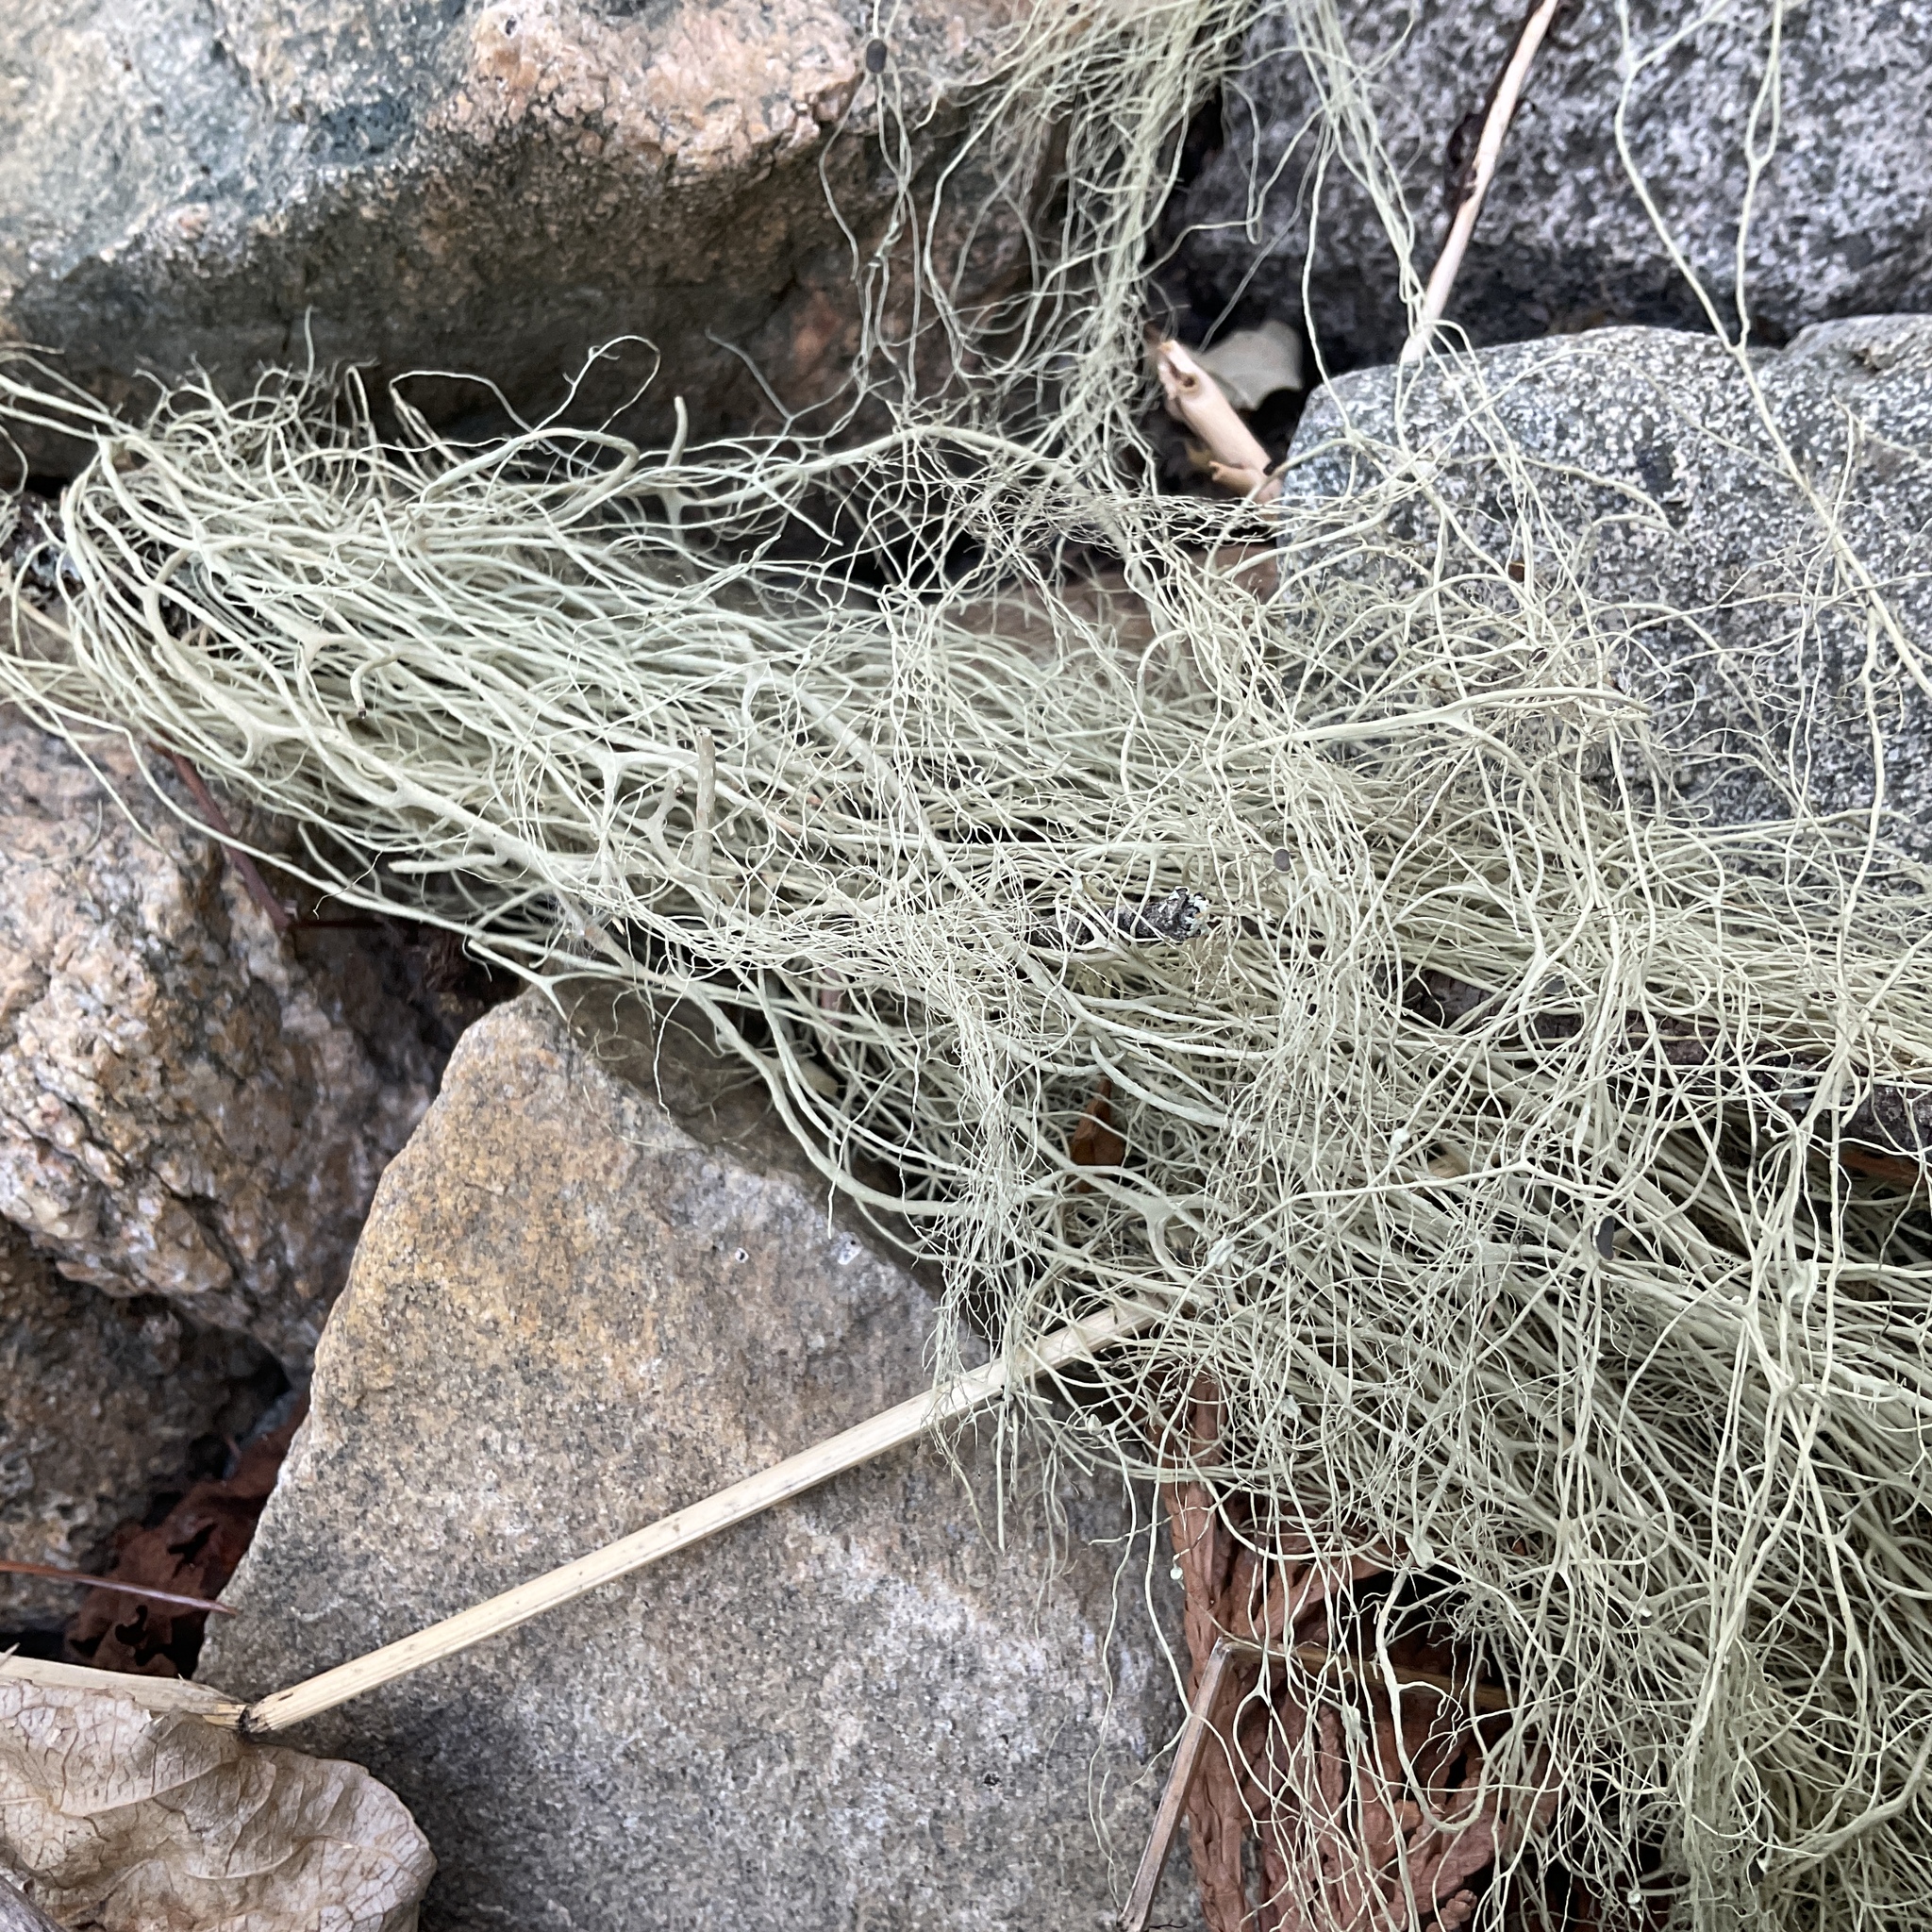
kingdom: Fungi
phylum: Ascomycota
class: Lecanoromycetes
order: Lecanorales
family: Parmeliaceae
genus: Alectoria
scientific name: Alectoria sarmentosa
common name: Witch's hair
